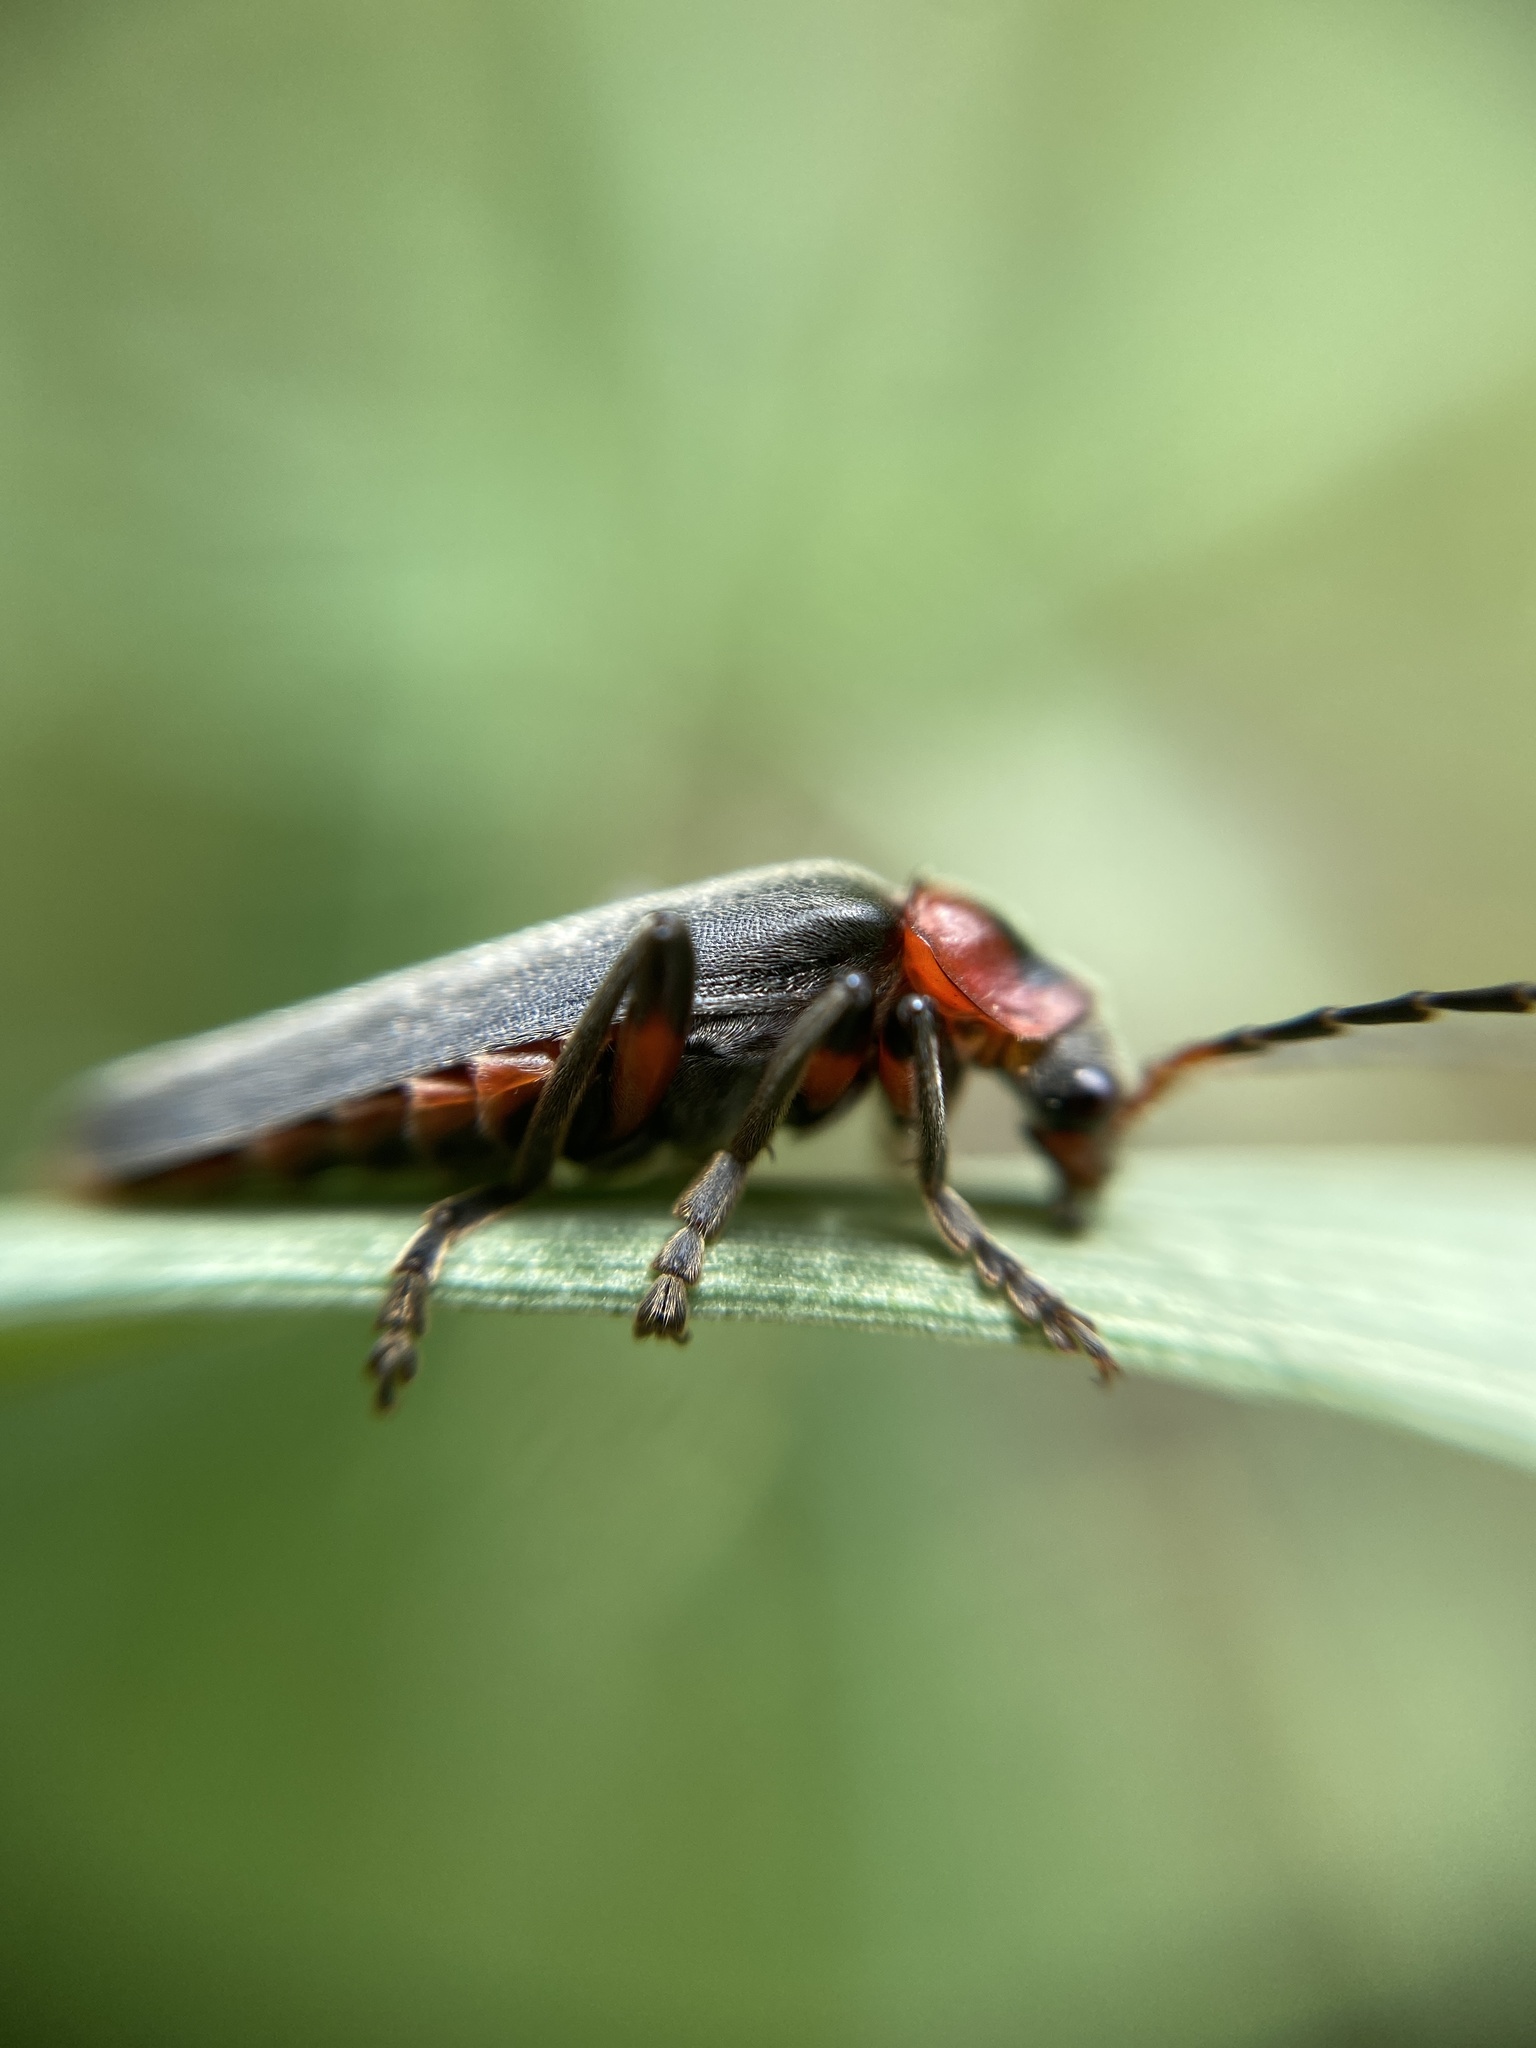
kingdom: Animalia
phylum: Arthropoda
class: Insecta
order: Coleoptera
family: Cantharidae
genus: Cantharis
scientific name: Cantharis rustica
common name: Soldier beetle
